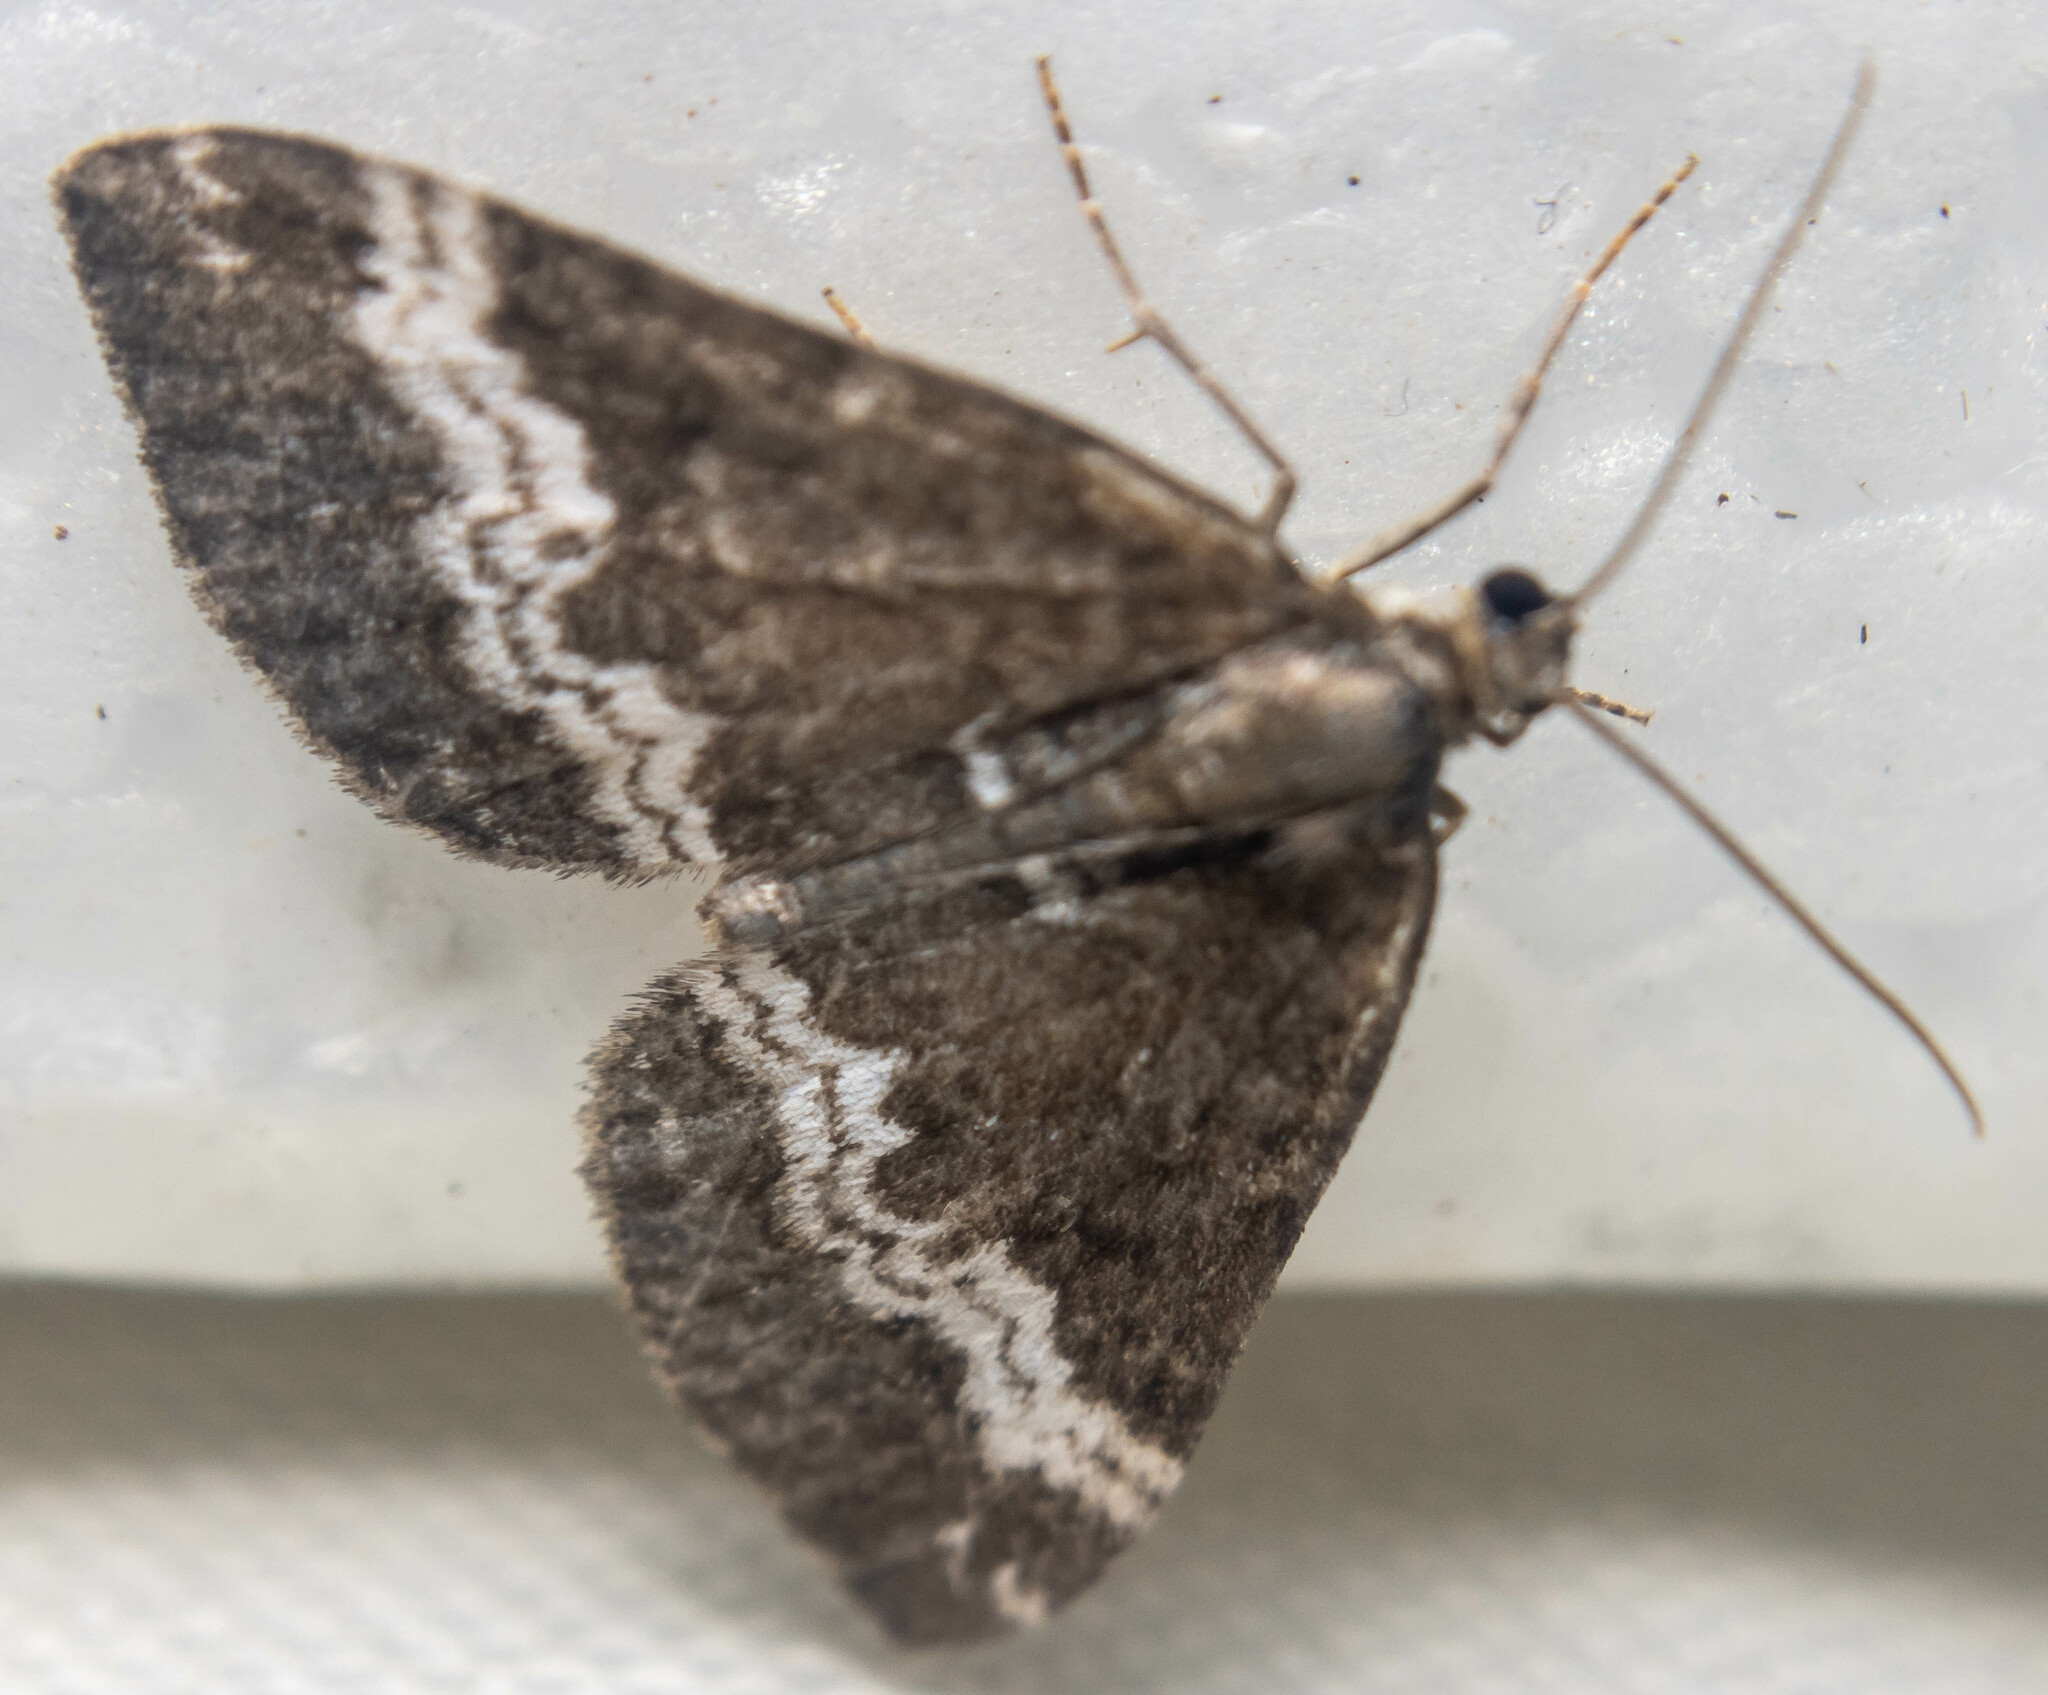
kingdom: Animalia
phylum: Arthropoda
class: Insecta
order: Lepidoptera
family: Geometridae
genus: Perizoma
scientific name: Perizoma affinitata
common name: Rivulet
